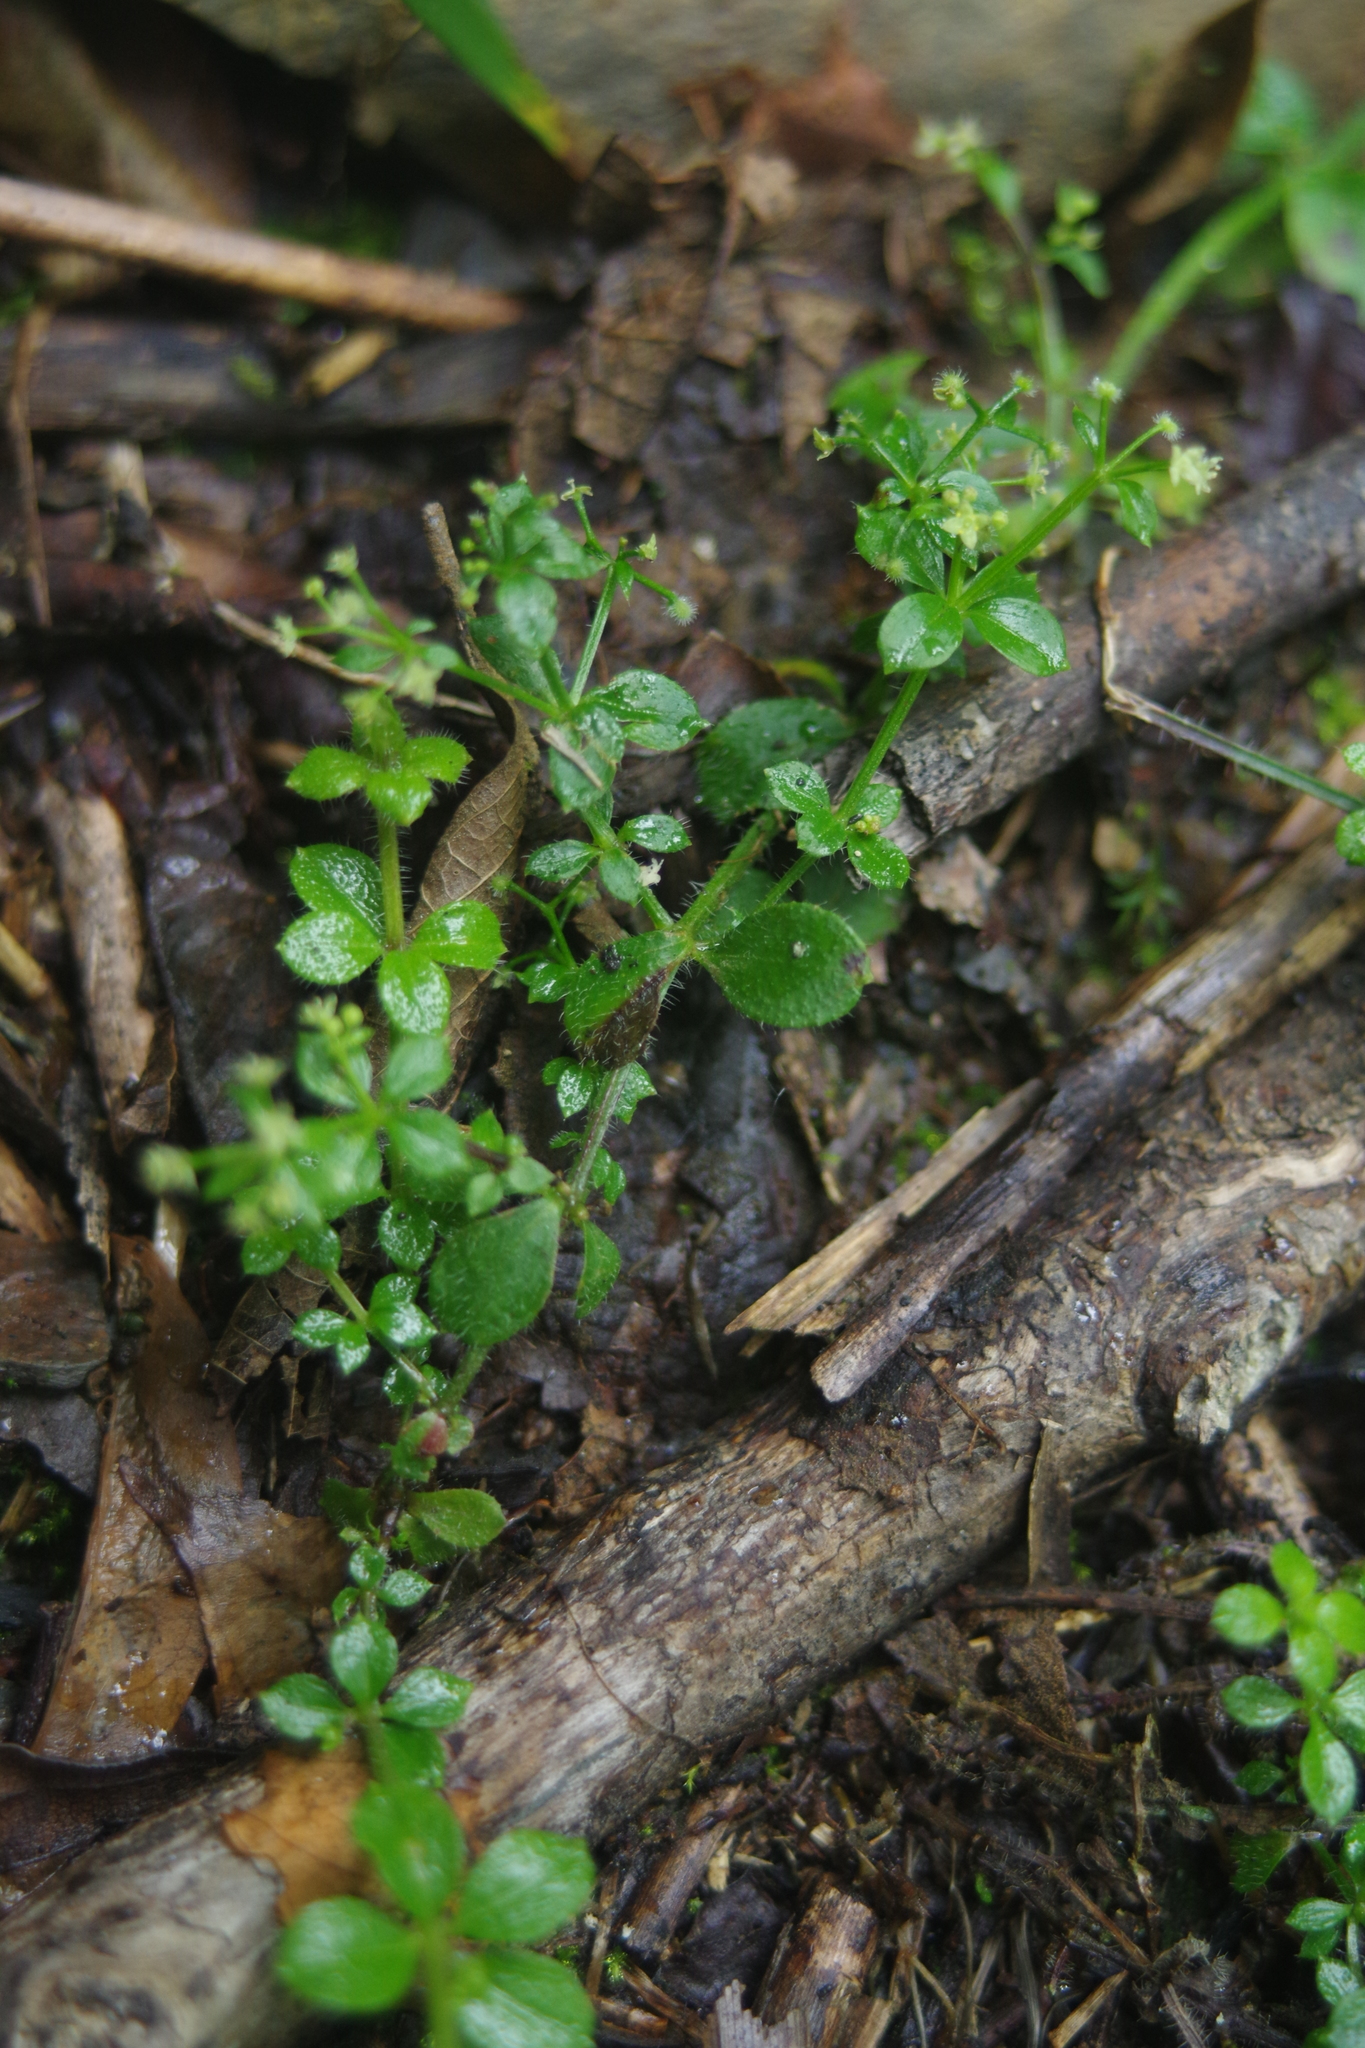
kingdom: Plantae
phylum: Tracheophyta
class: Magnoliopsida
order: Gentianales
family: Rubiaceae
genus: Galium
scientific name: Galium formosense
